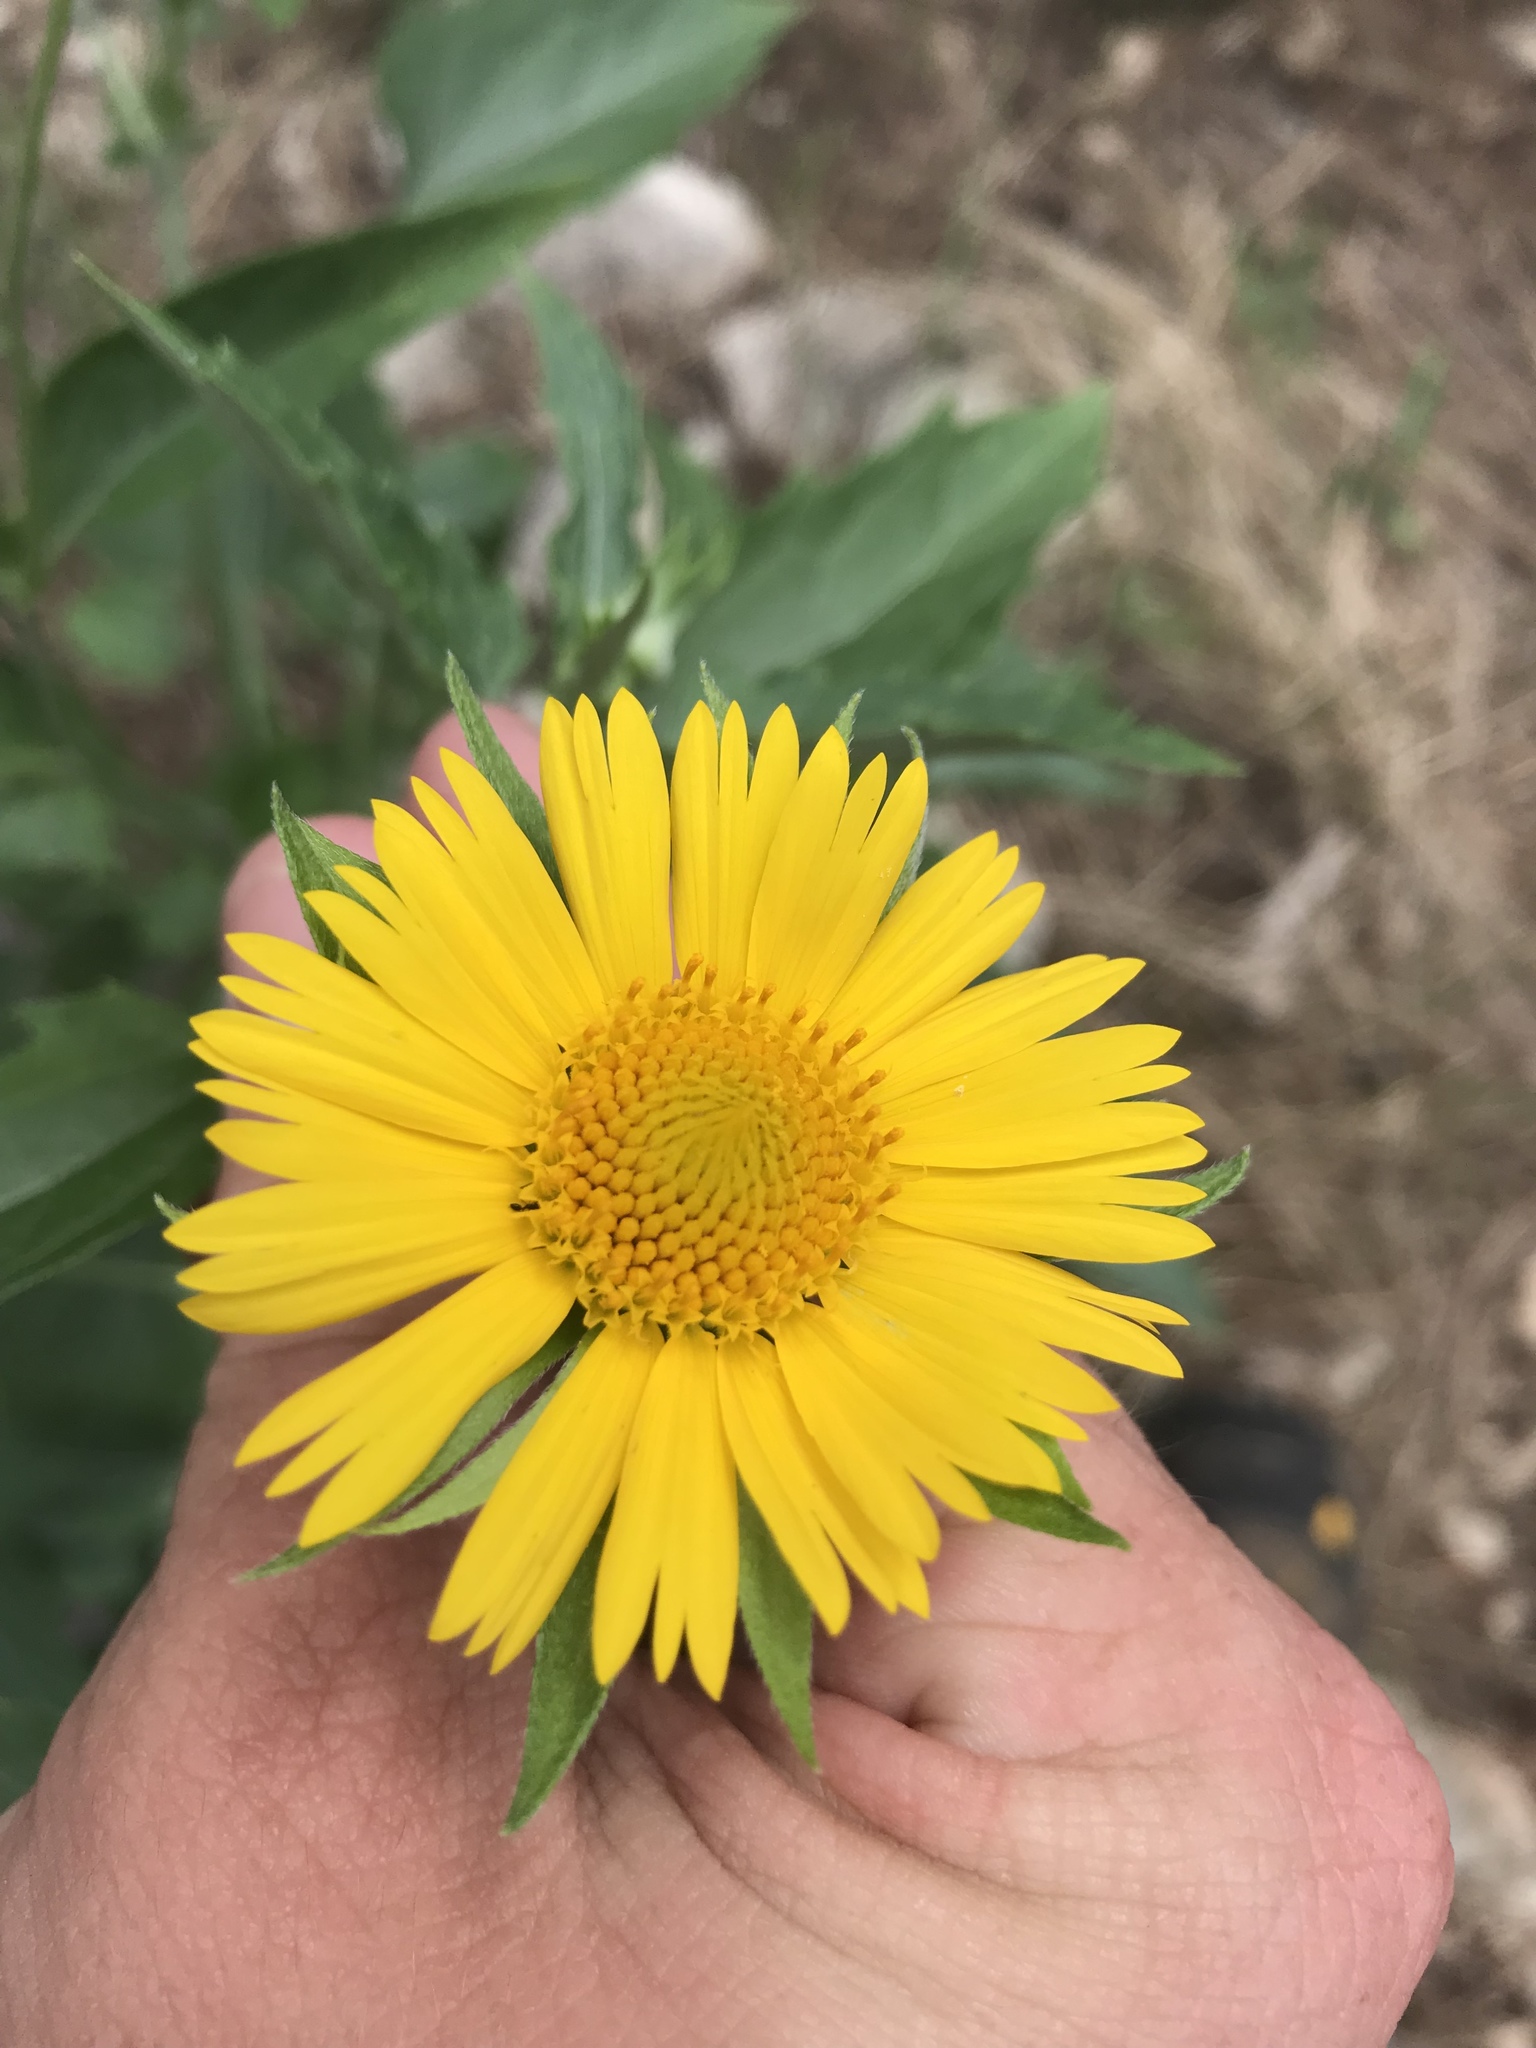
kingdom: Plantae
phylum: Tracheophyta
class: Magnoliopsida
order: Asterales
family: Asteraceae
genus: Verbesina
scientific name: Verbesina encelioides
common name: Golden crownbeard
